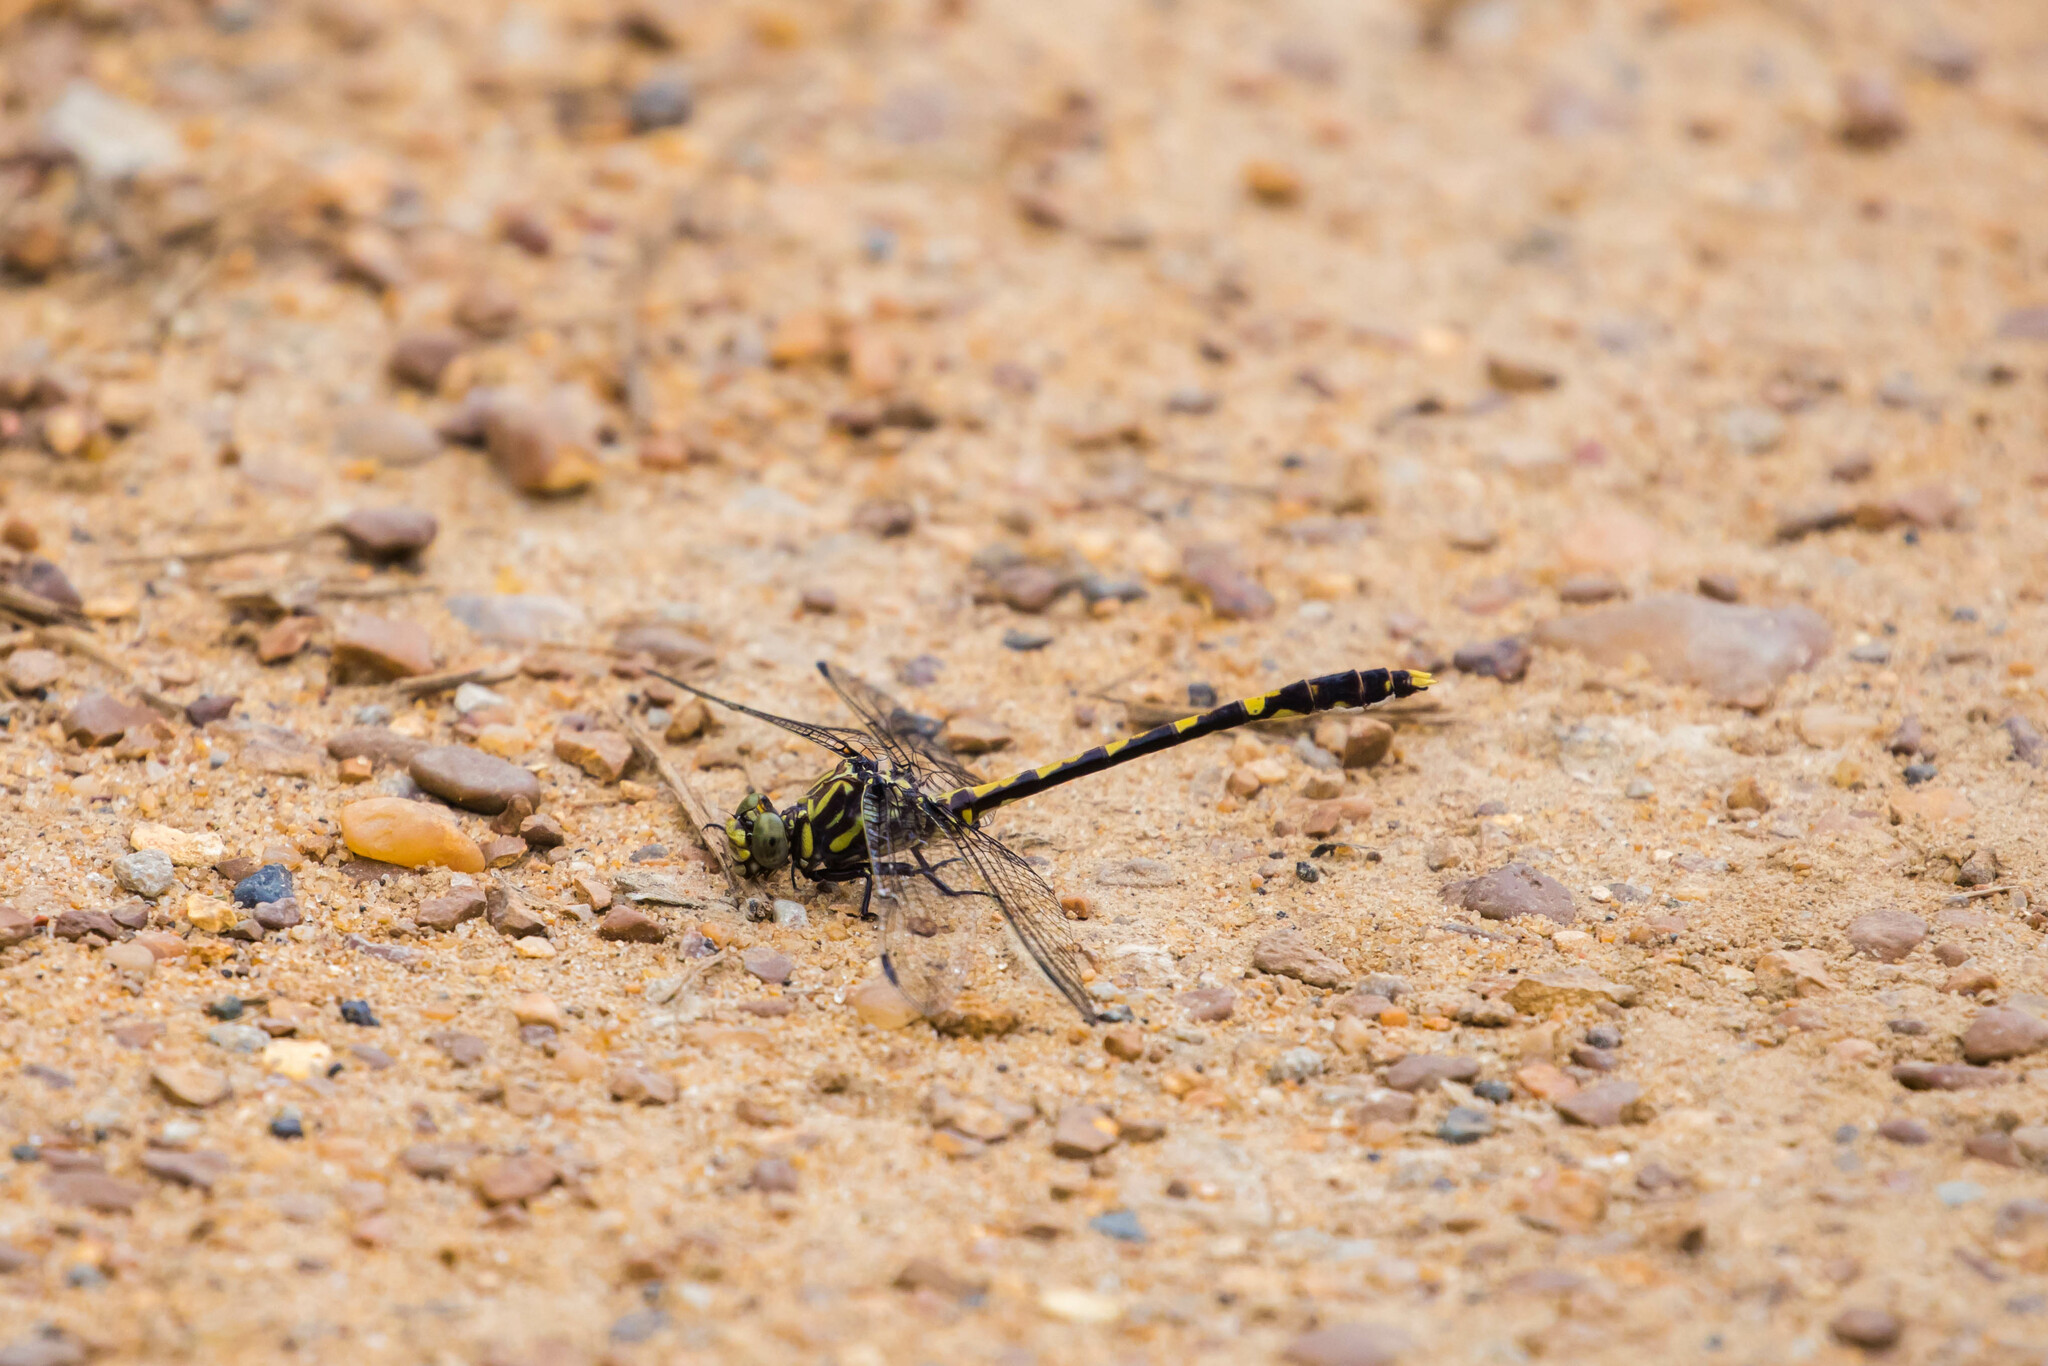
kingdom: Animalia
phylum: Arthropoda
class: Insecta
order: Odonata
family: Gomphidae
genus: Progomphus
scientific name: Progomphus obscurus
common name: Common sanddragon
